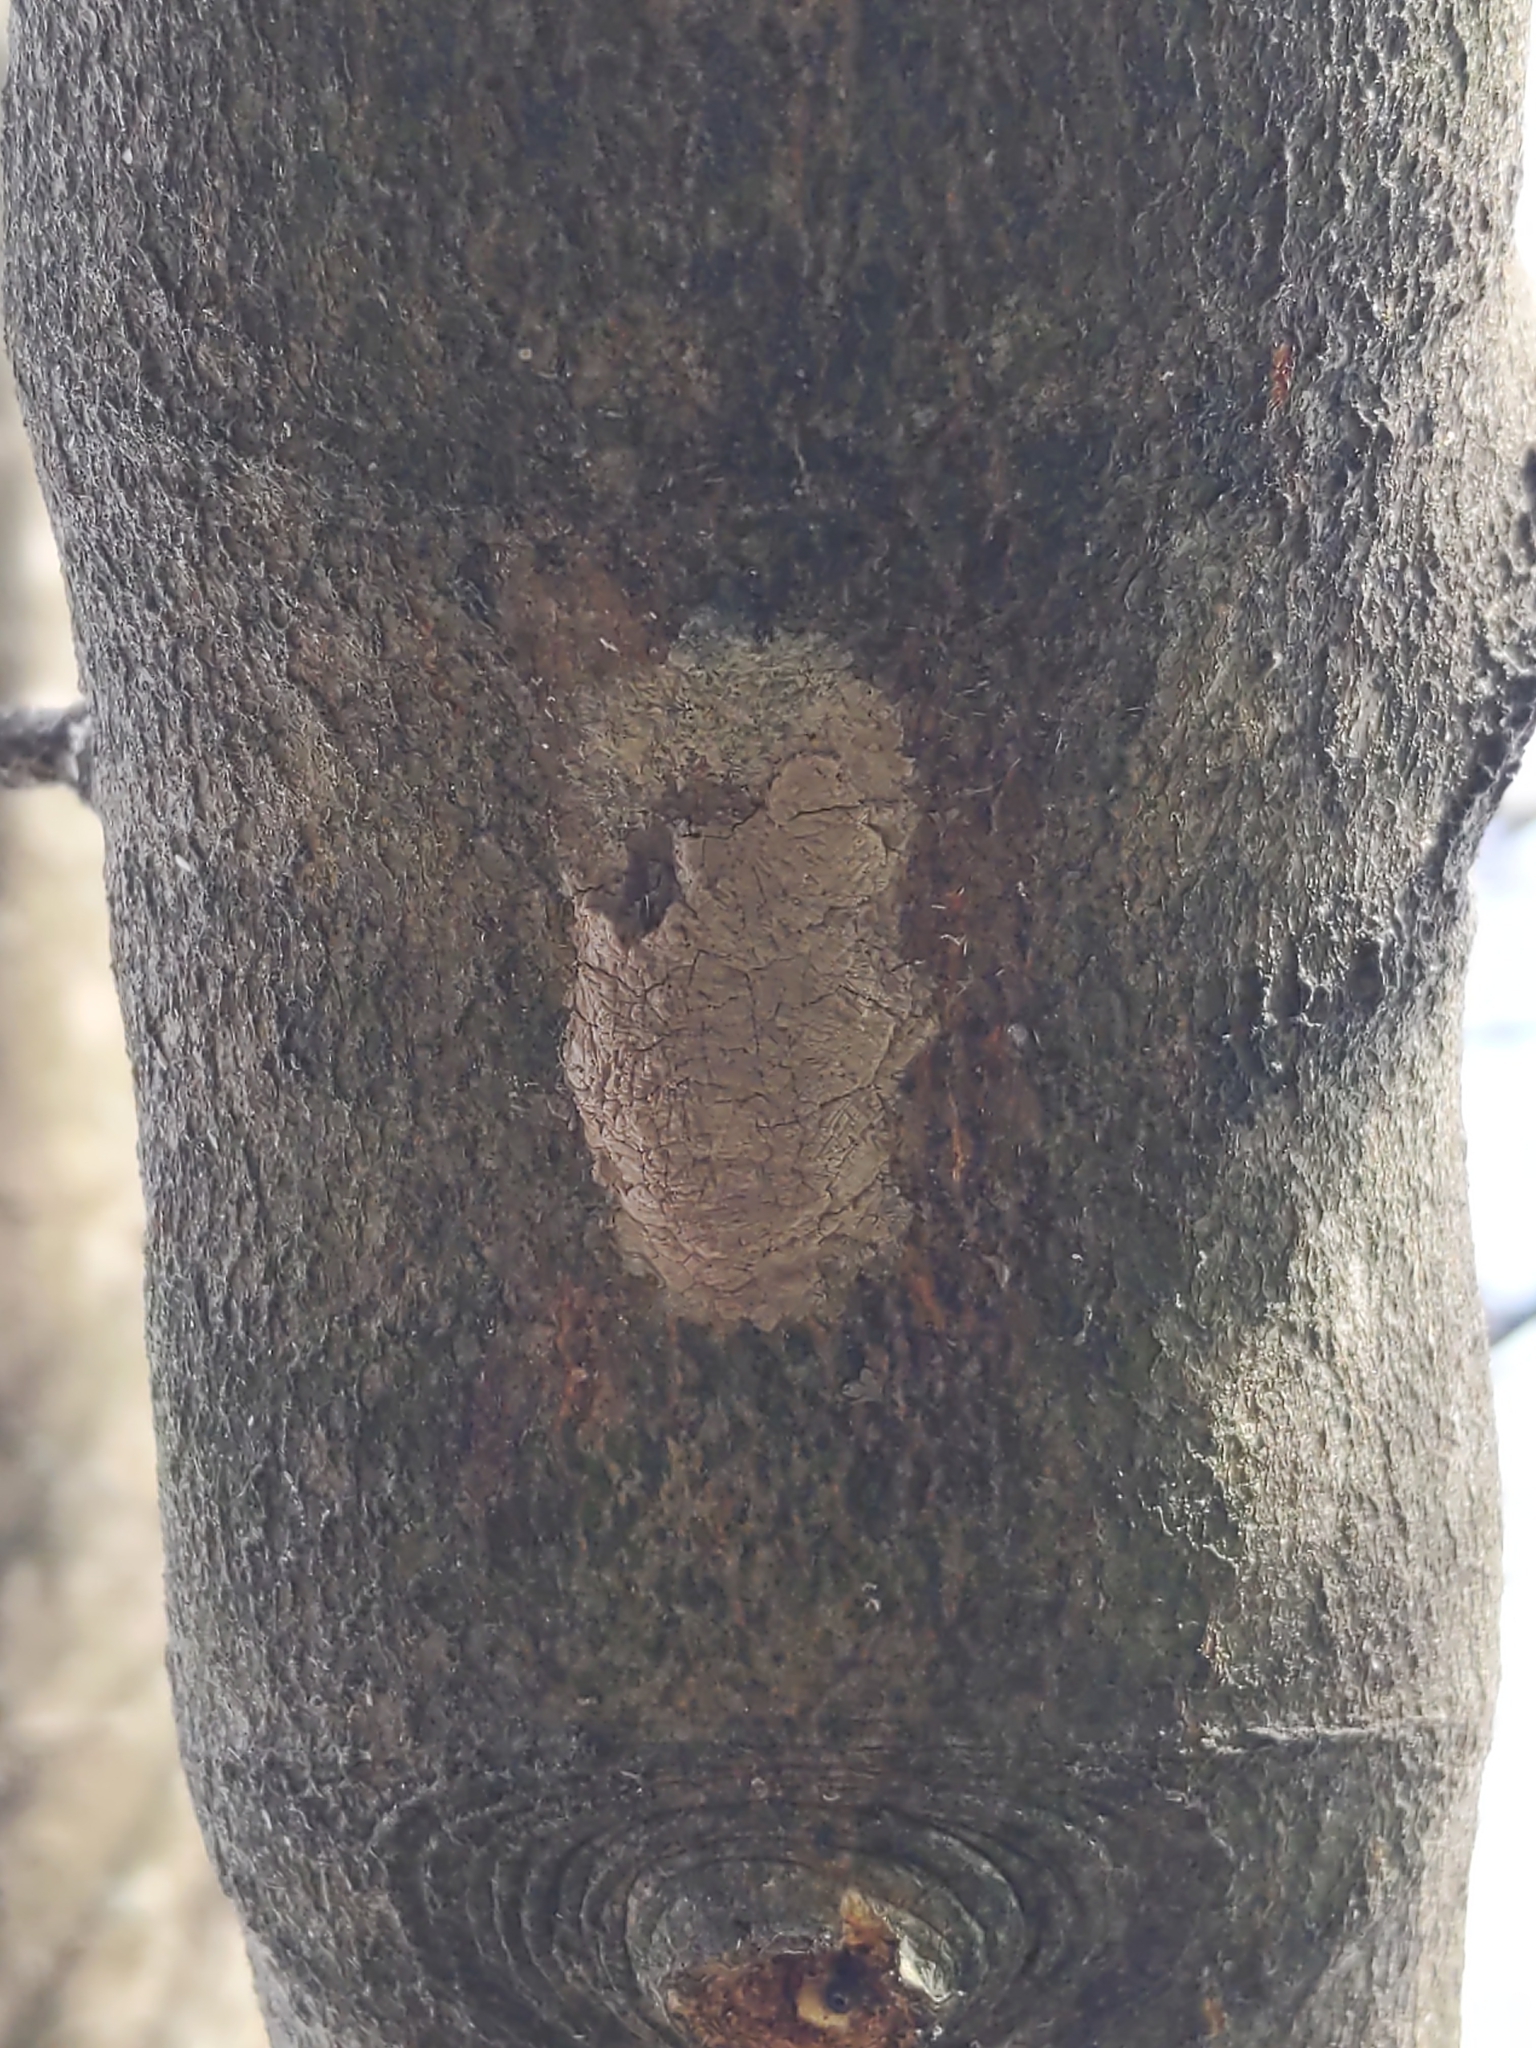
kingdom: Animalia
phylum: Arthropoda
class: Insecta
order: Hemiptera
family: Fulgoridae
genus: Lycorma
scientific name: Lycorma delicatula
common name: Spotted lanternfly
